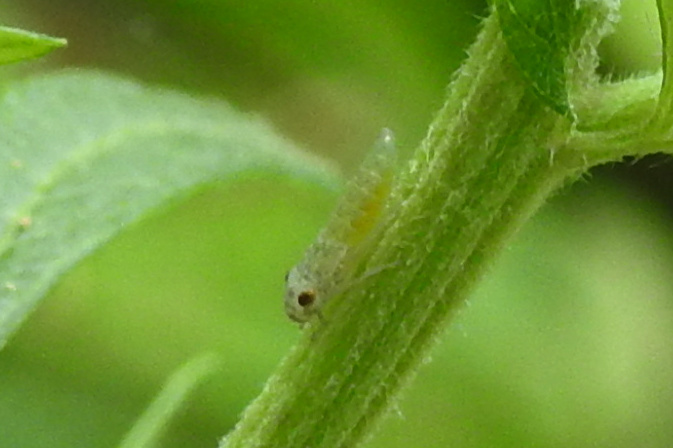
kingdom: Animalia
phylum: Arthropoda
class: Insecta
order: Hemiptera
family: Cicadellidae
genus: Oncometopia
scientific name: Oncometopia orbona
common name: Broad-headed sharpshooter
